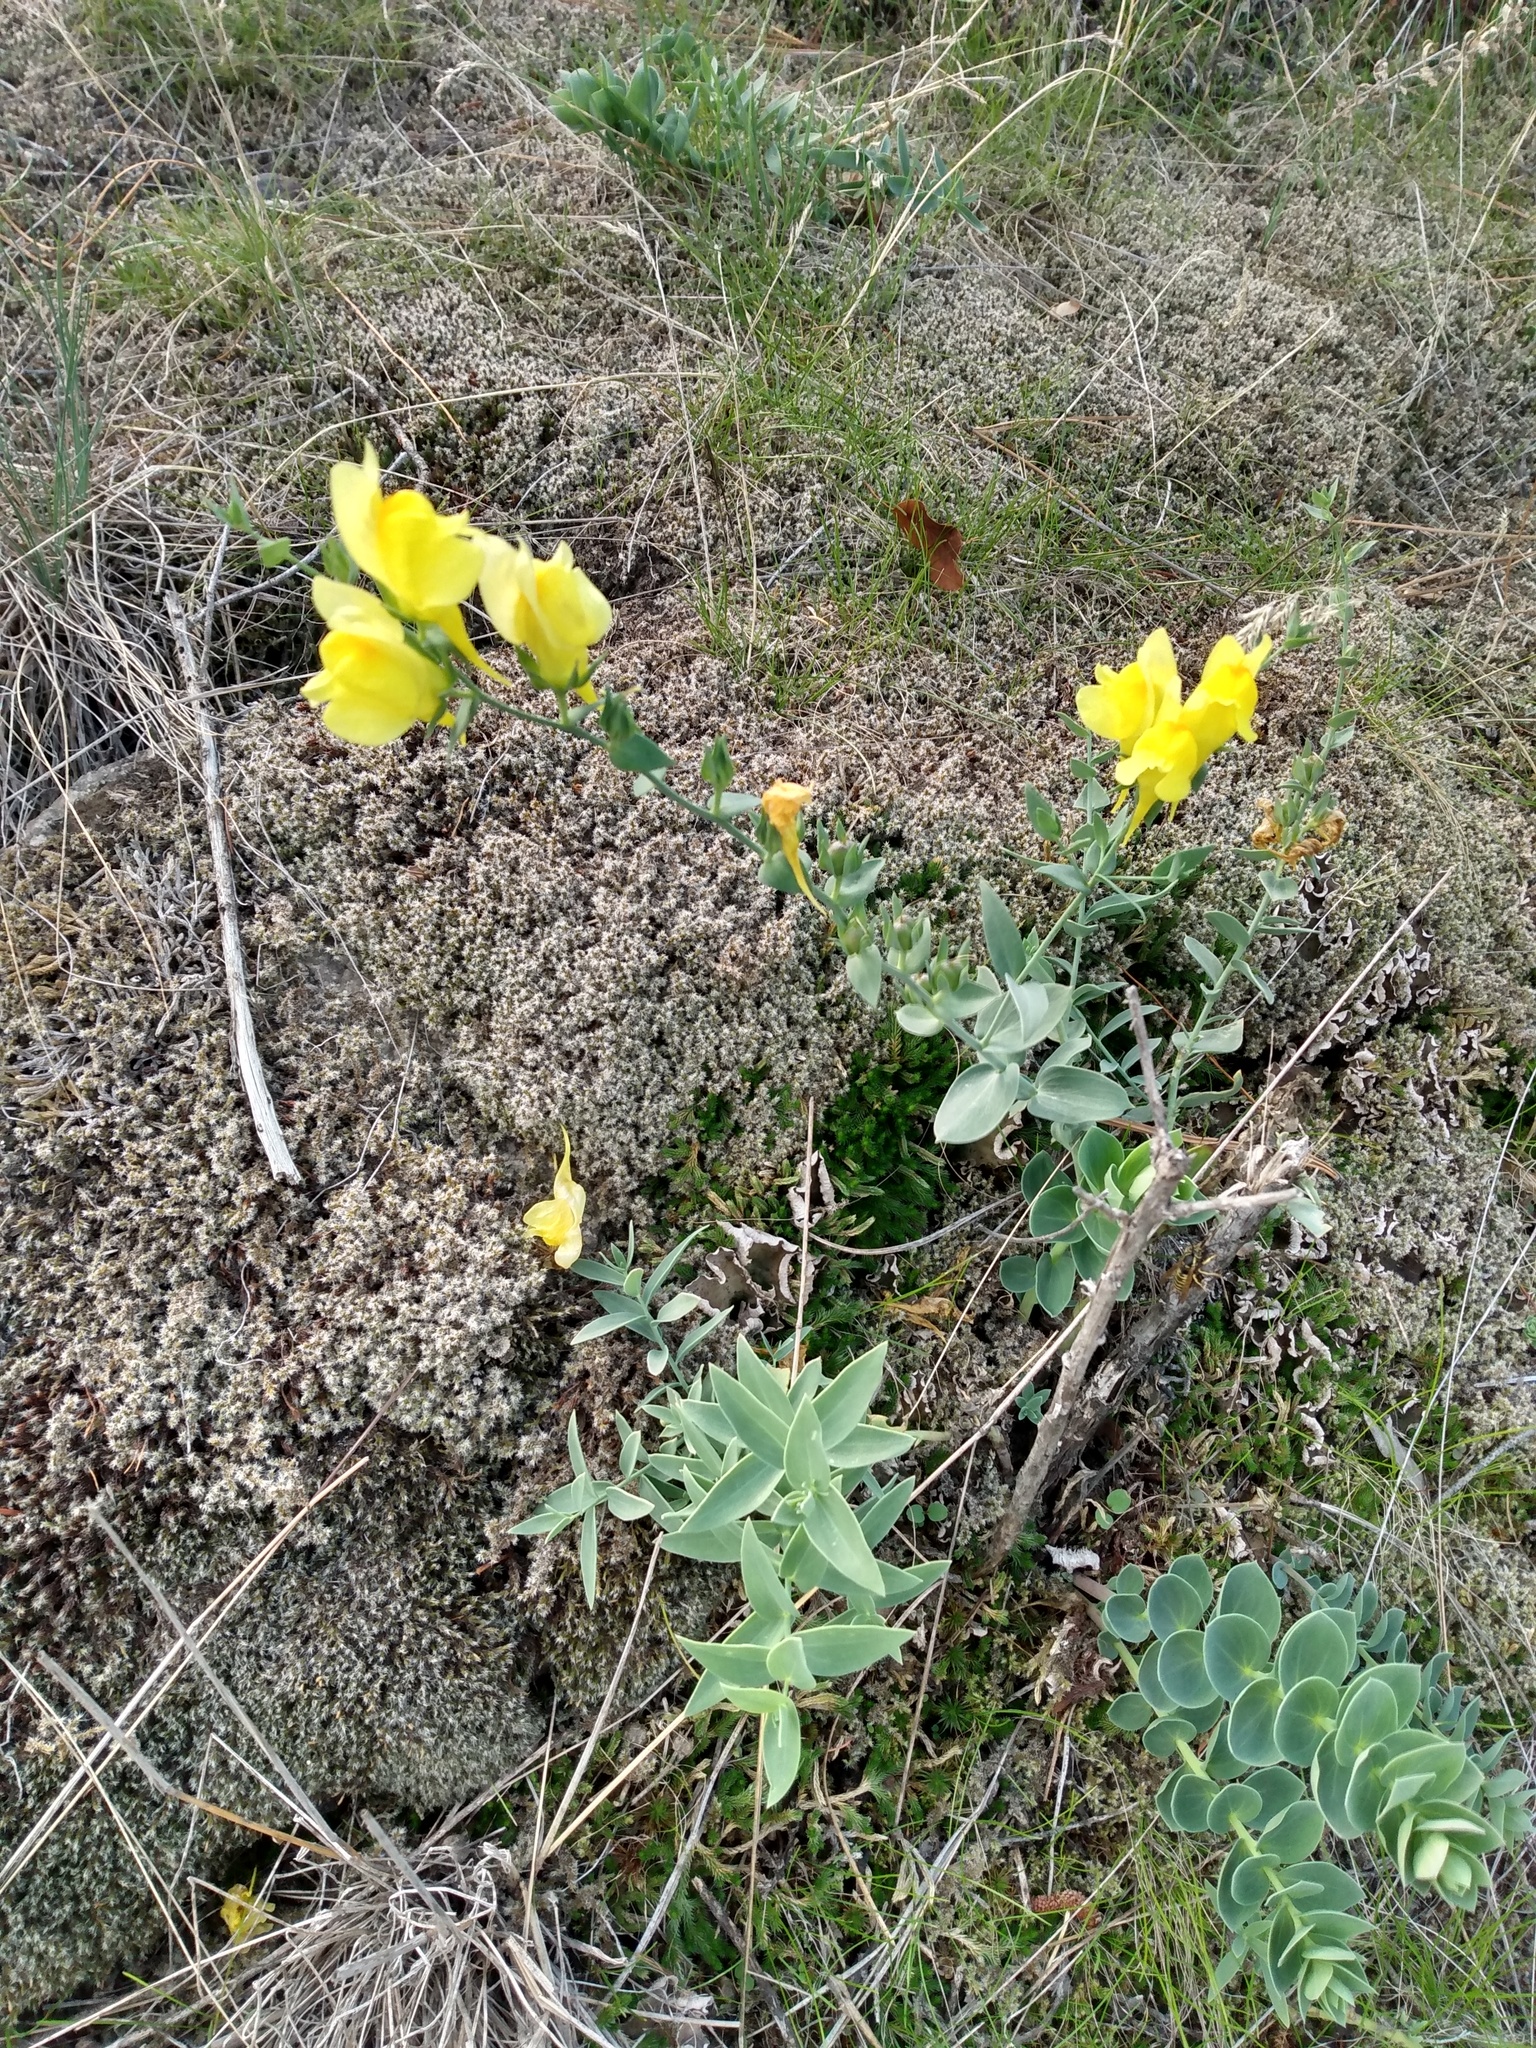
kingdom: Plantae
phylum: Tracheophyta
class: Magnoliopsida
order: Lamiales
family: Plantaginaceae
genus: Linaria
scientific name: Linaria dalmatica
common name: Dalmatian toadflax
